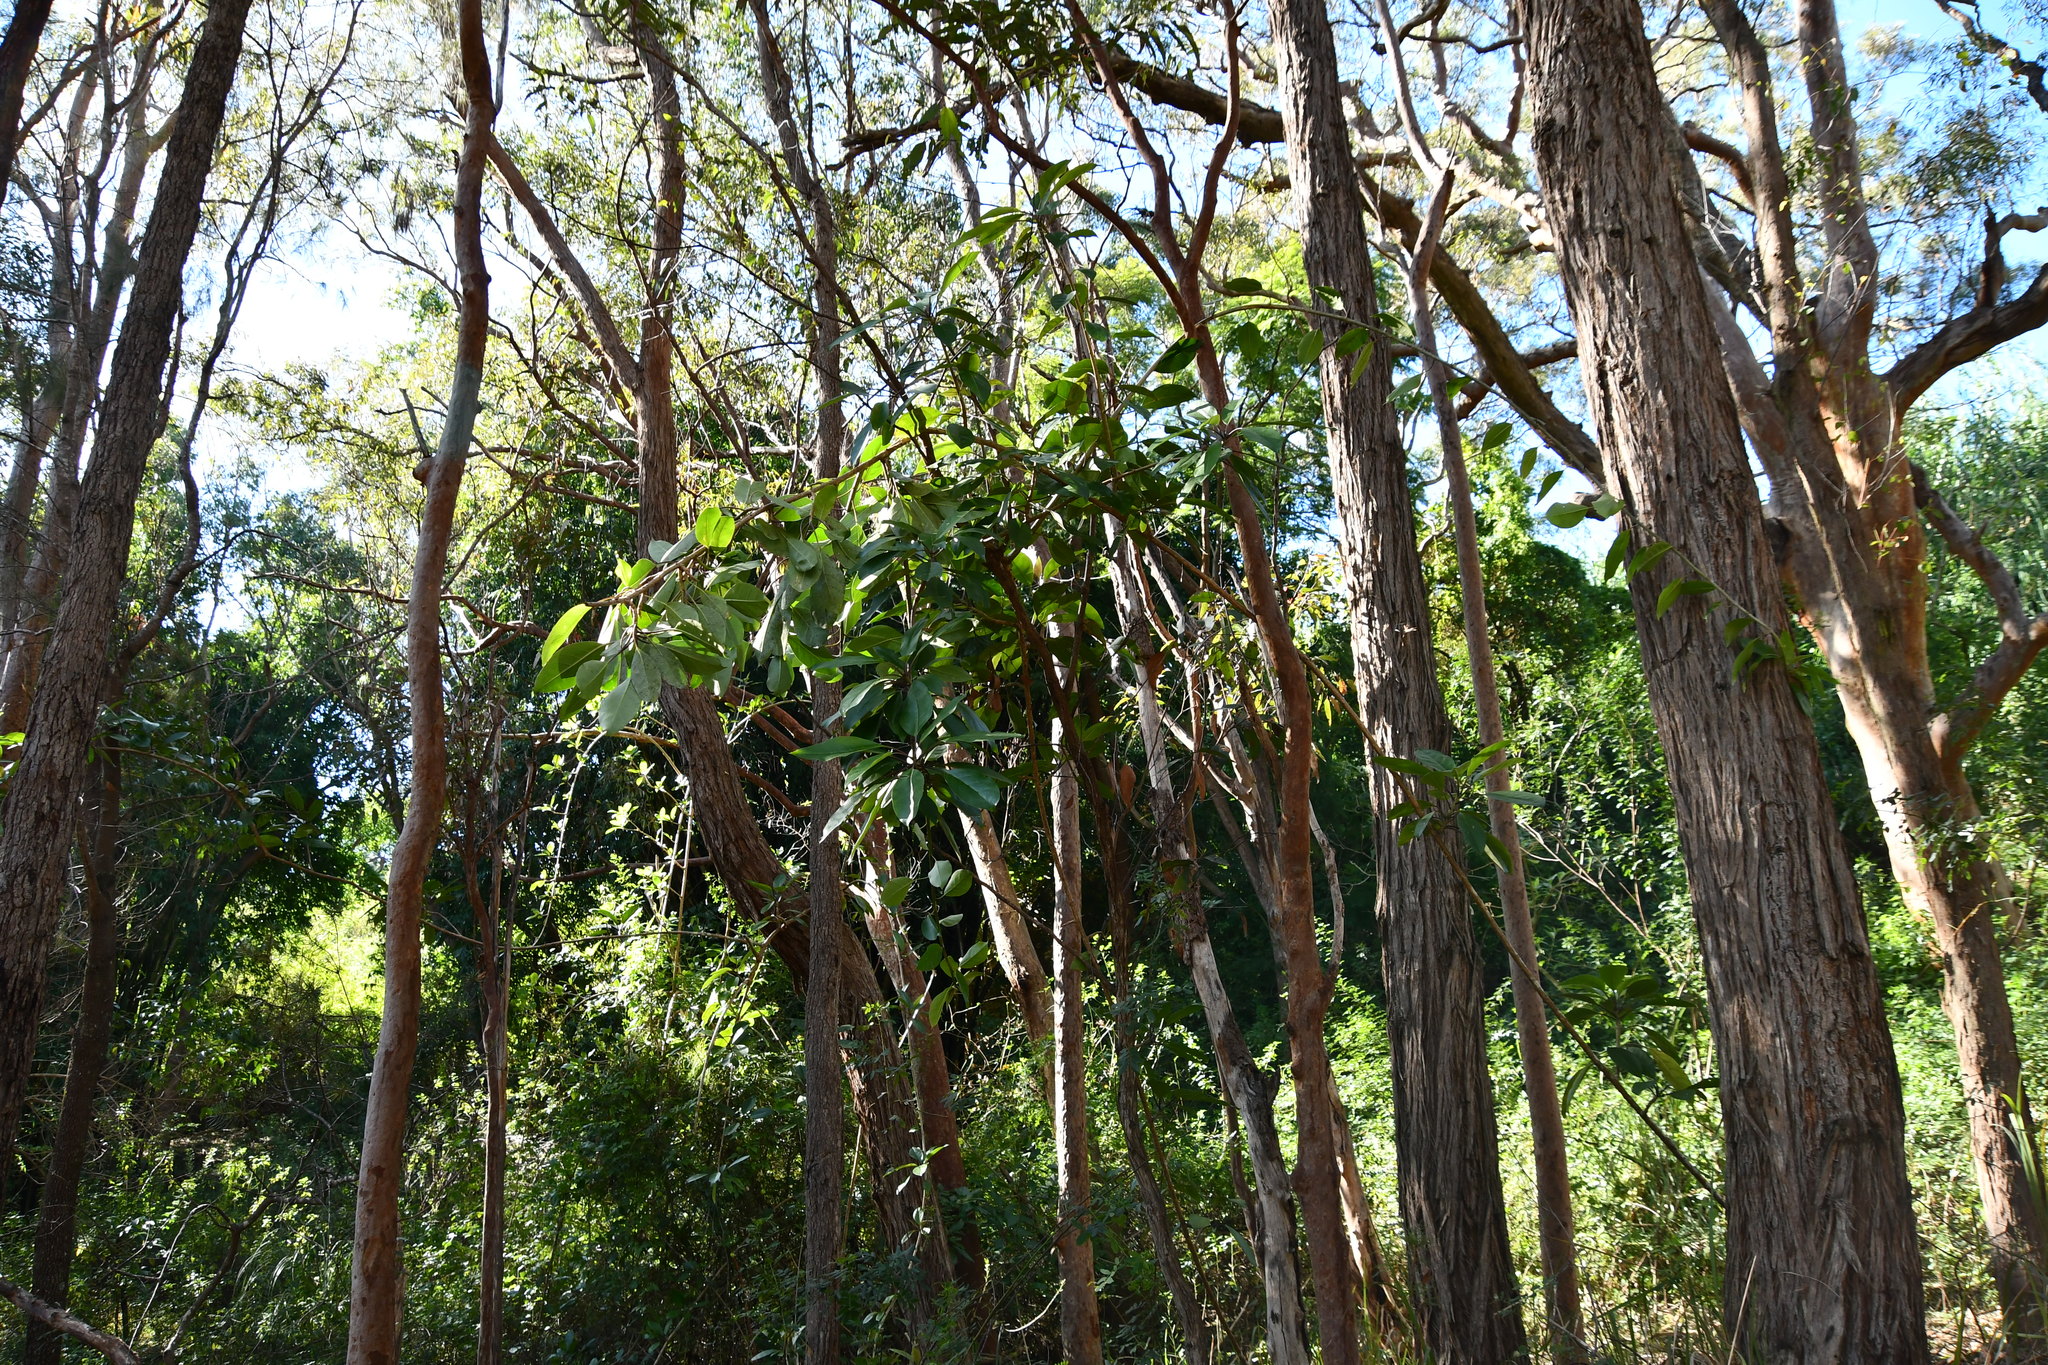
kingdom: Plantae
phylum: Tracheophyta
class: Magnoliopsida
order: Solanales
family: Solanaceae
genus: Solandra
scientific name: Solandra maxima
